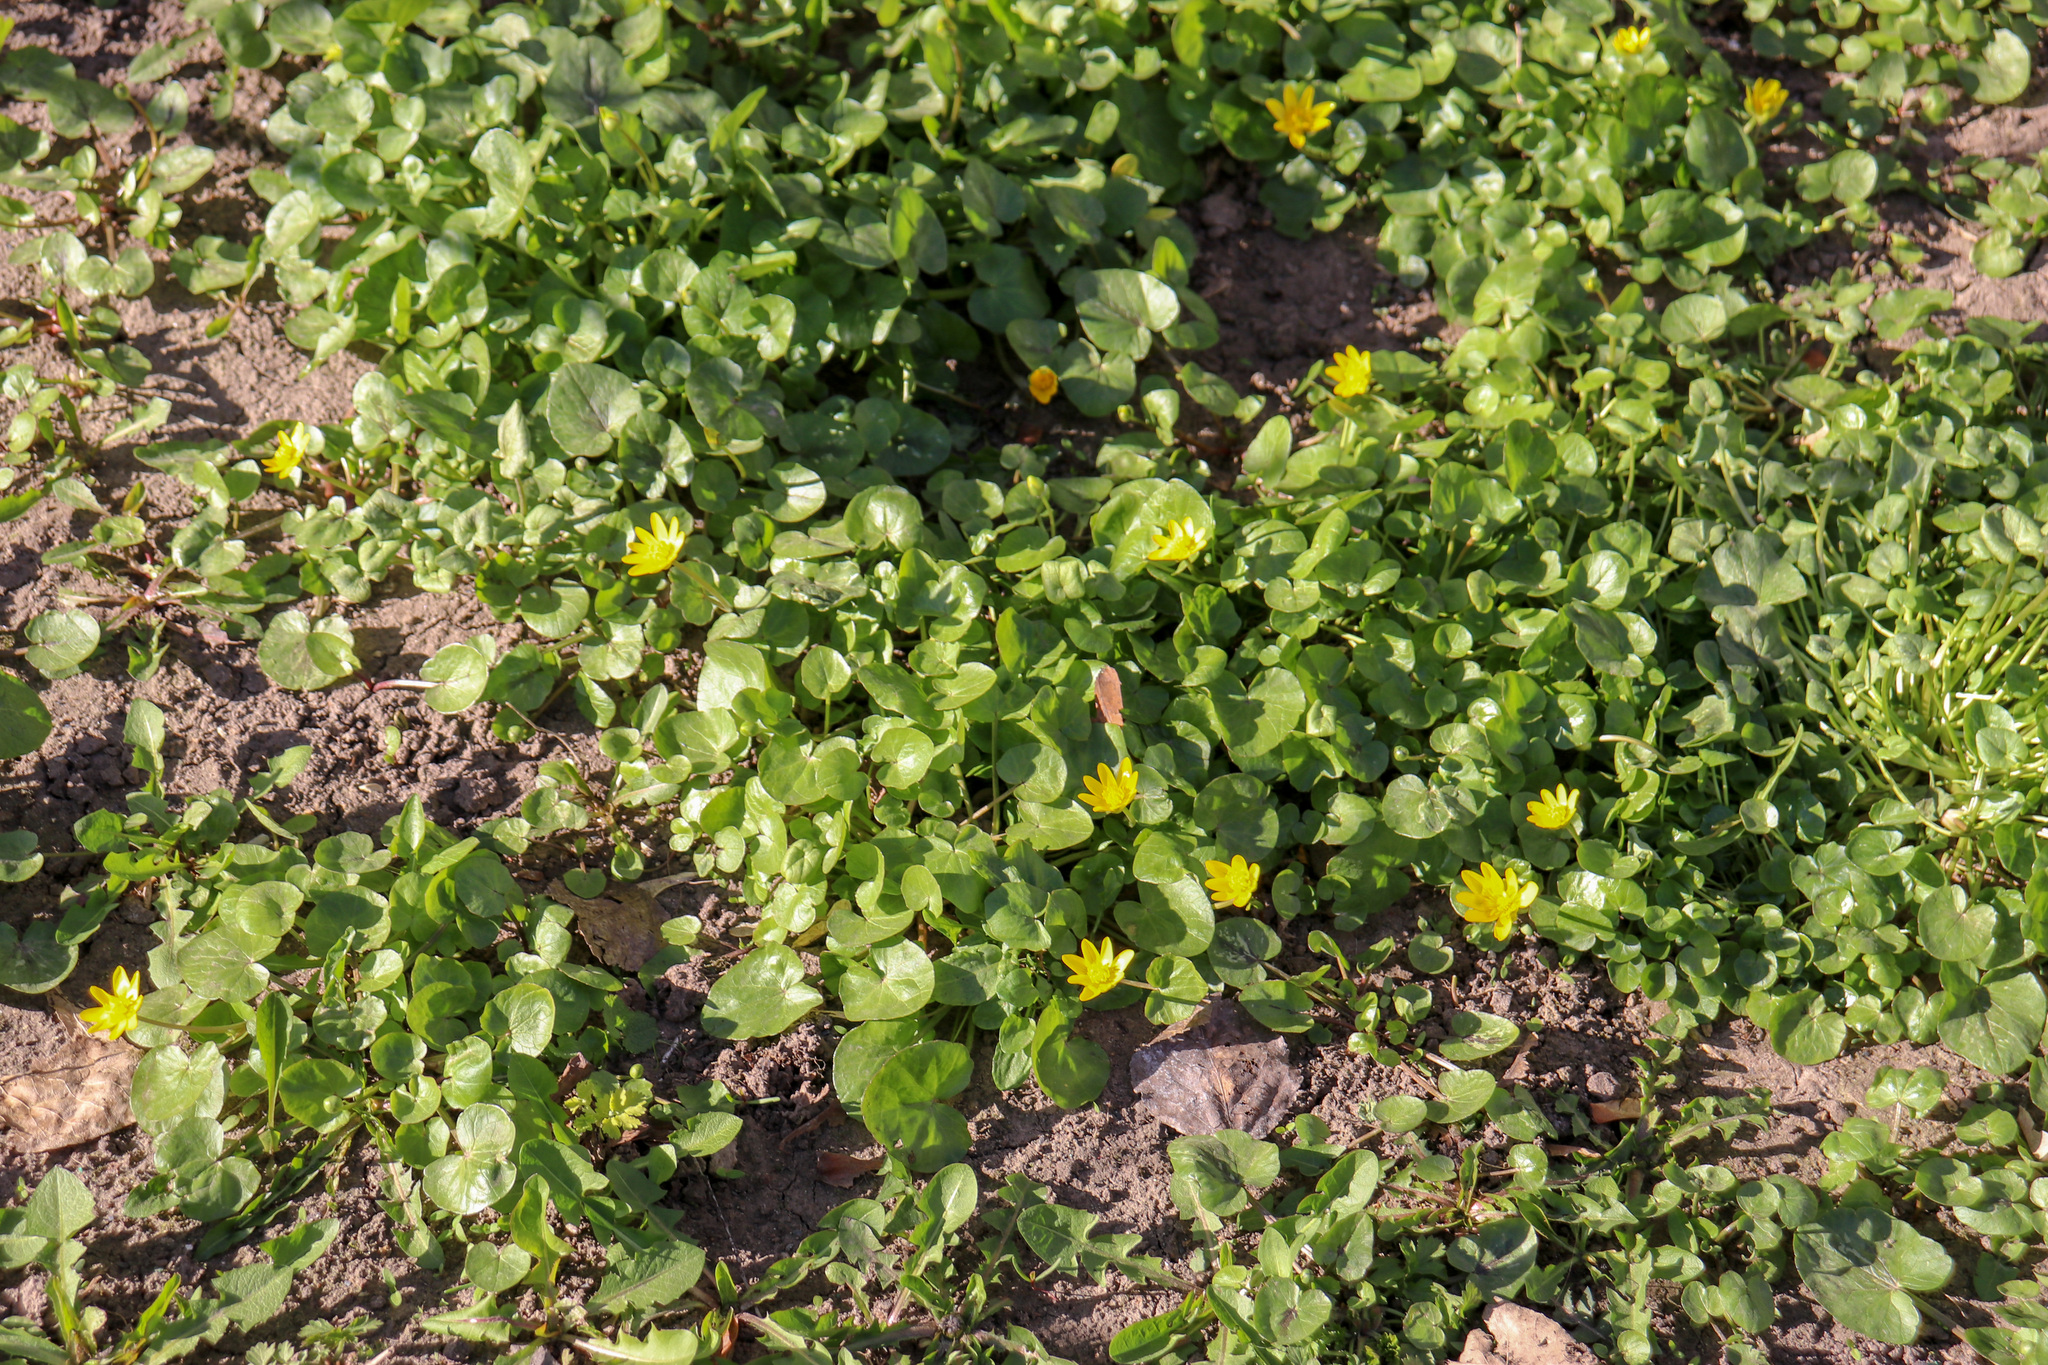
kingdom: Plantae
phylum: Tracheophyta
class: Magnoliopsida
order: Ranunculales
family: Ranunculaceae
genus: Ficaria
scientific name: Ficaria verna
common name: Lesser celandine
